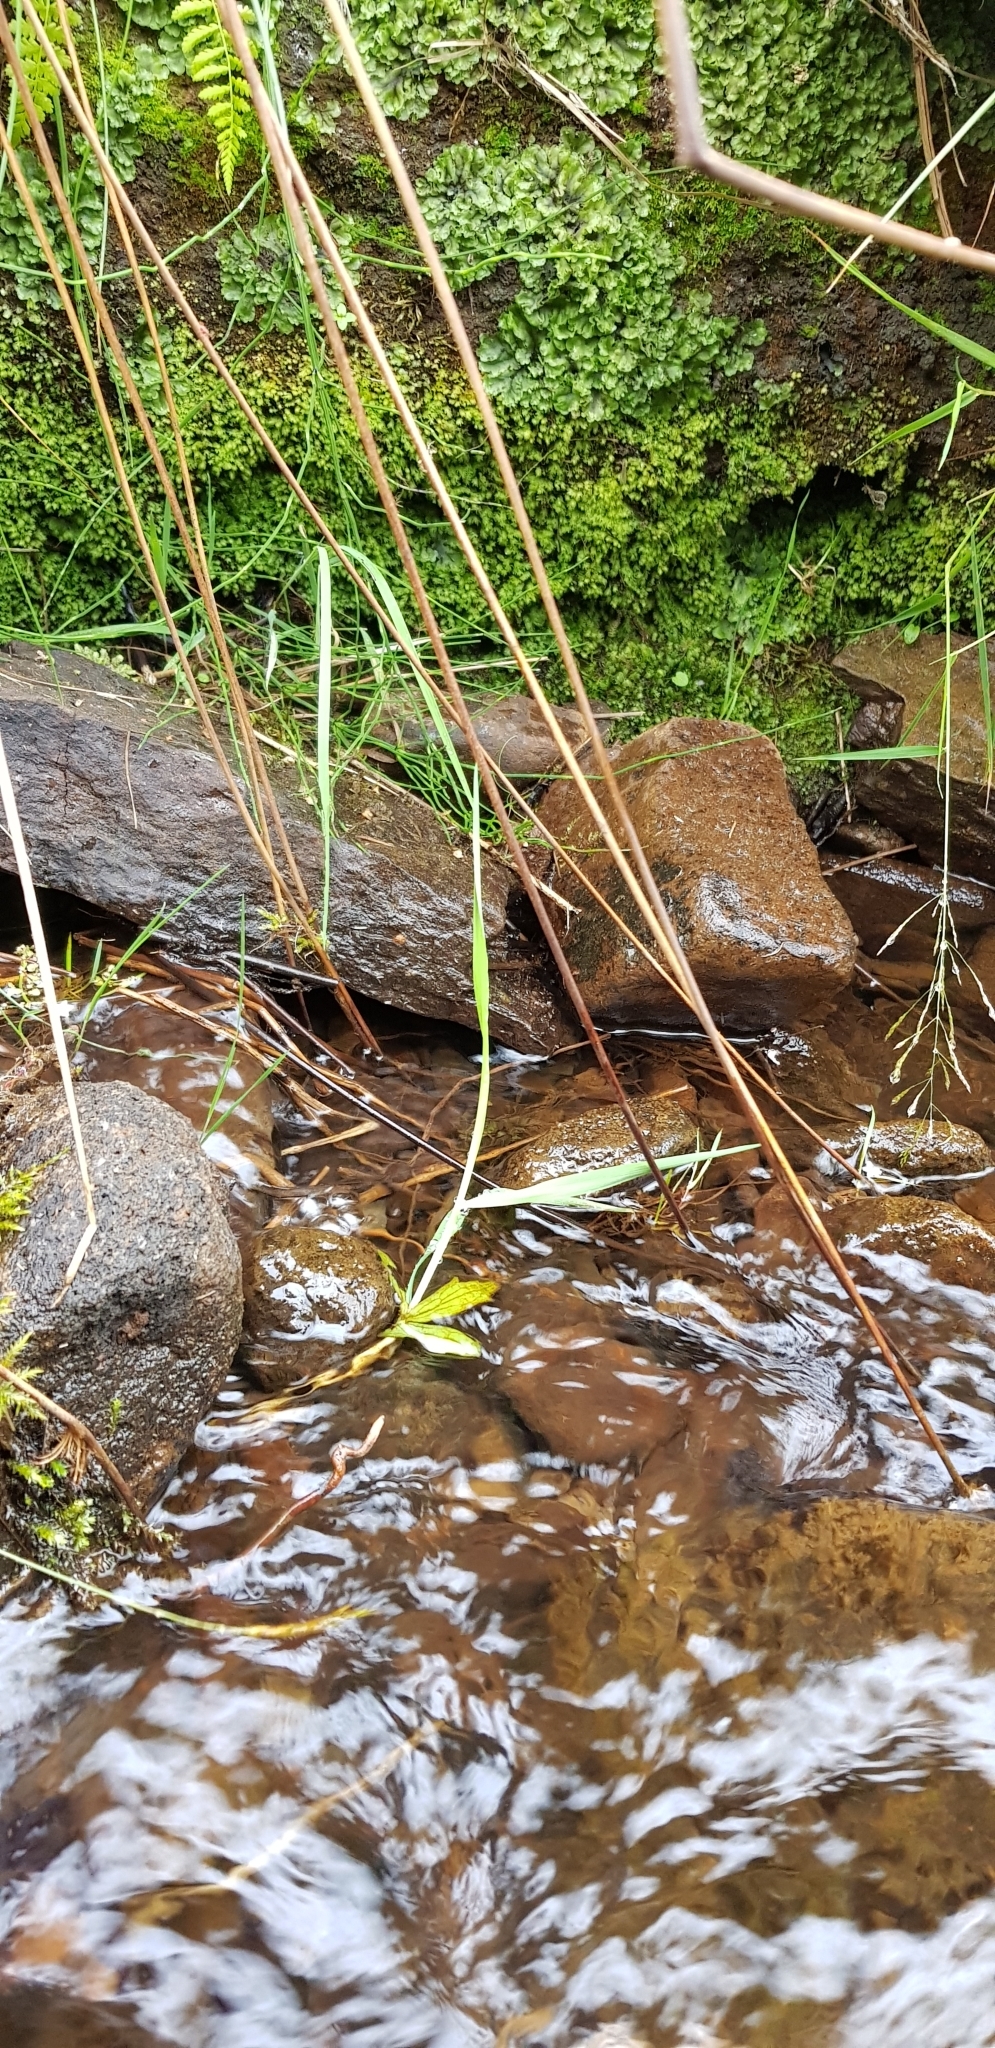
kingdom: Plantae
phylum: Bryophyta
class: Bryopsida
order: Dicranales
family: Fissidentaceae
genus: Fissidens
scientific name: Fissidens bryoides
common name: Lesser pocket moss
